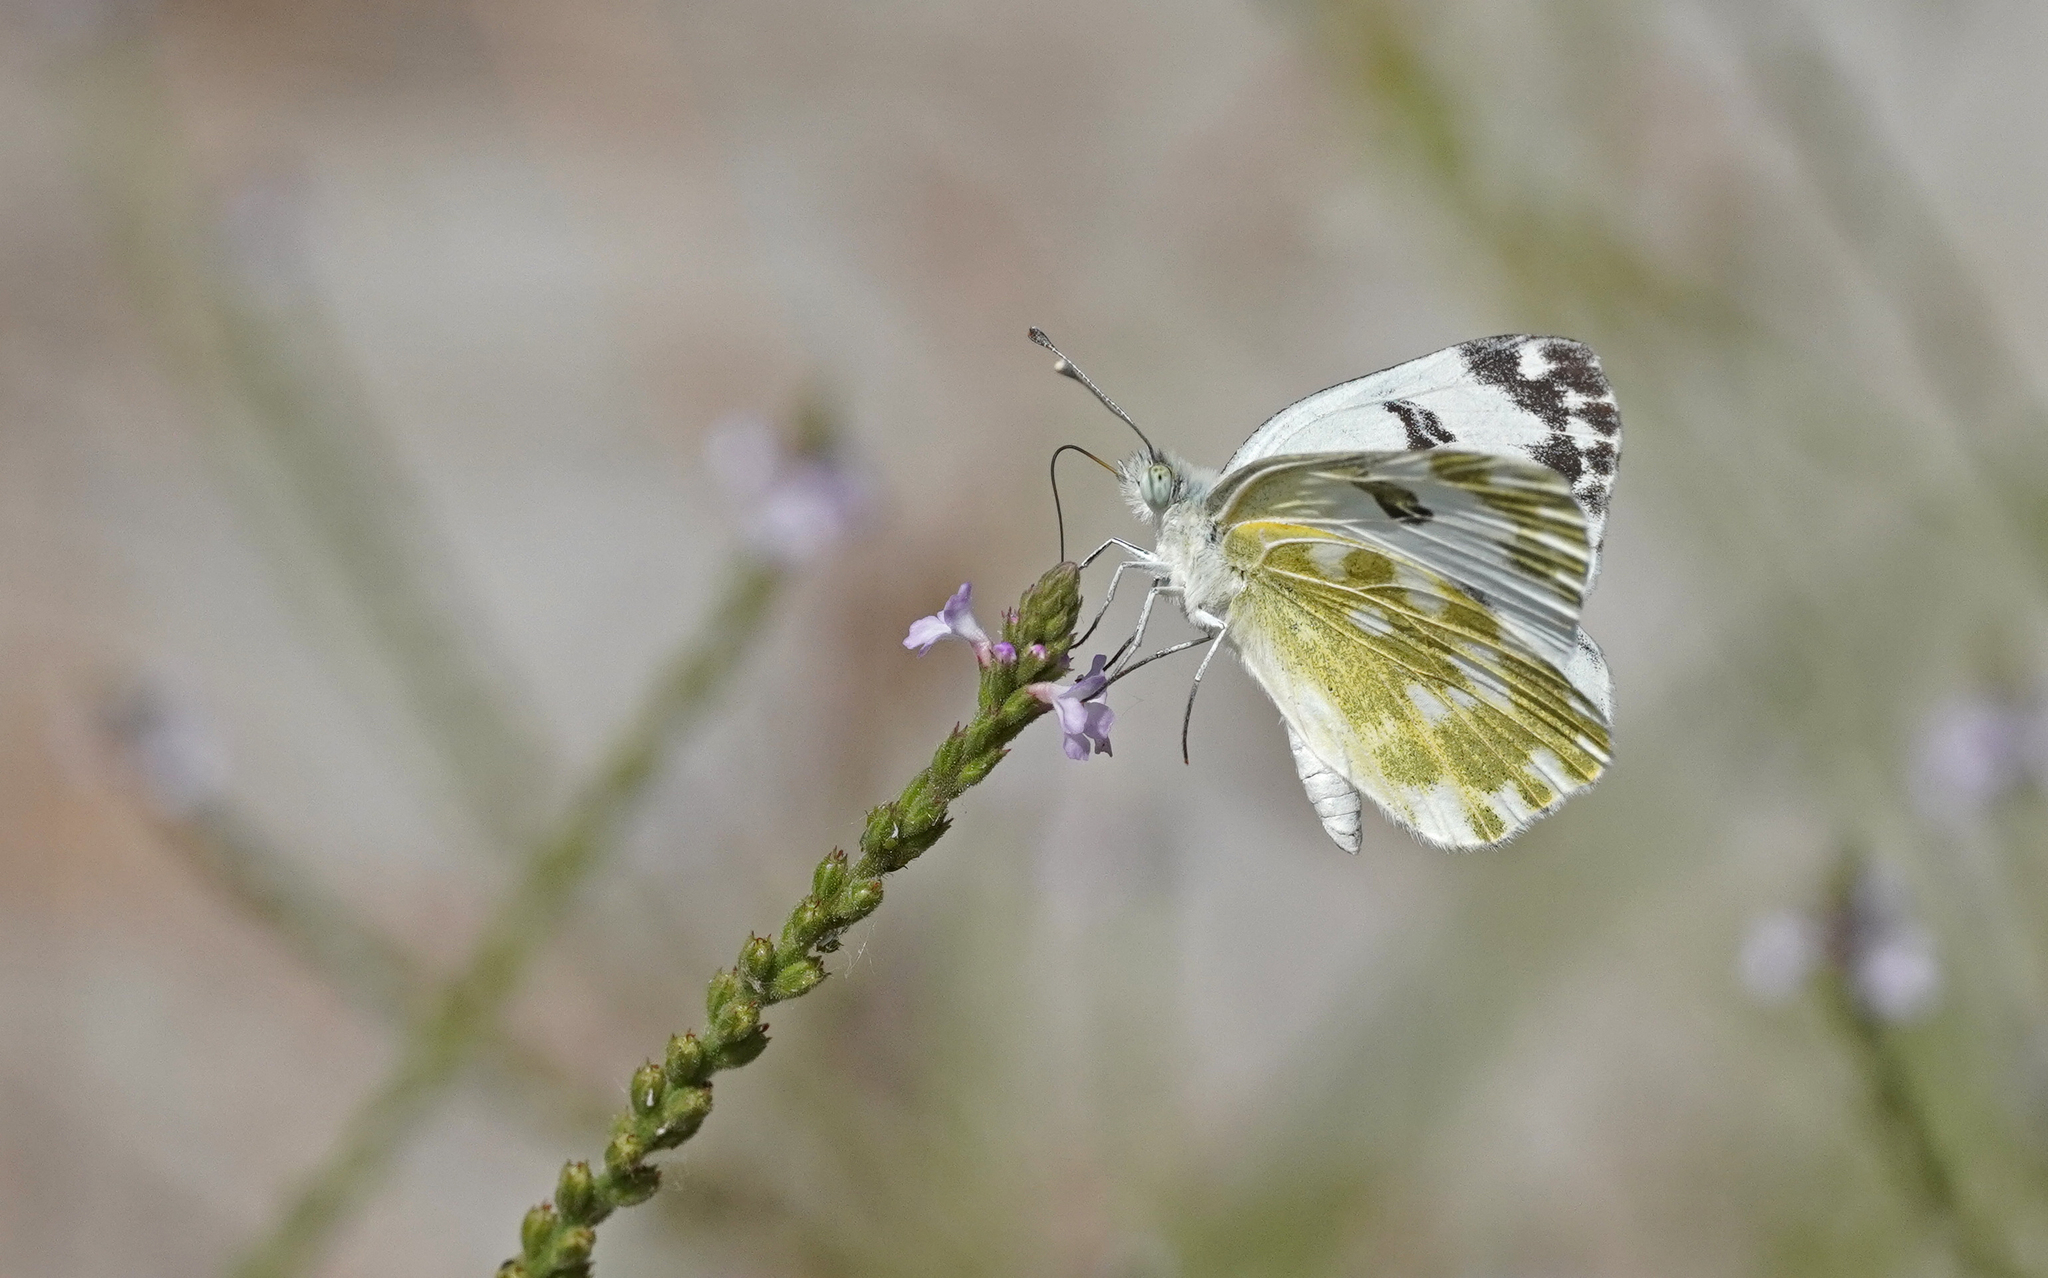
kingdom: Animalia
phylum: Arthropoda
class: Insecta
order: Lepidoptera
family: Pieridae
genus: Pontia
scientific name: Pontia edusa
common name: Eastern bath white
